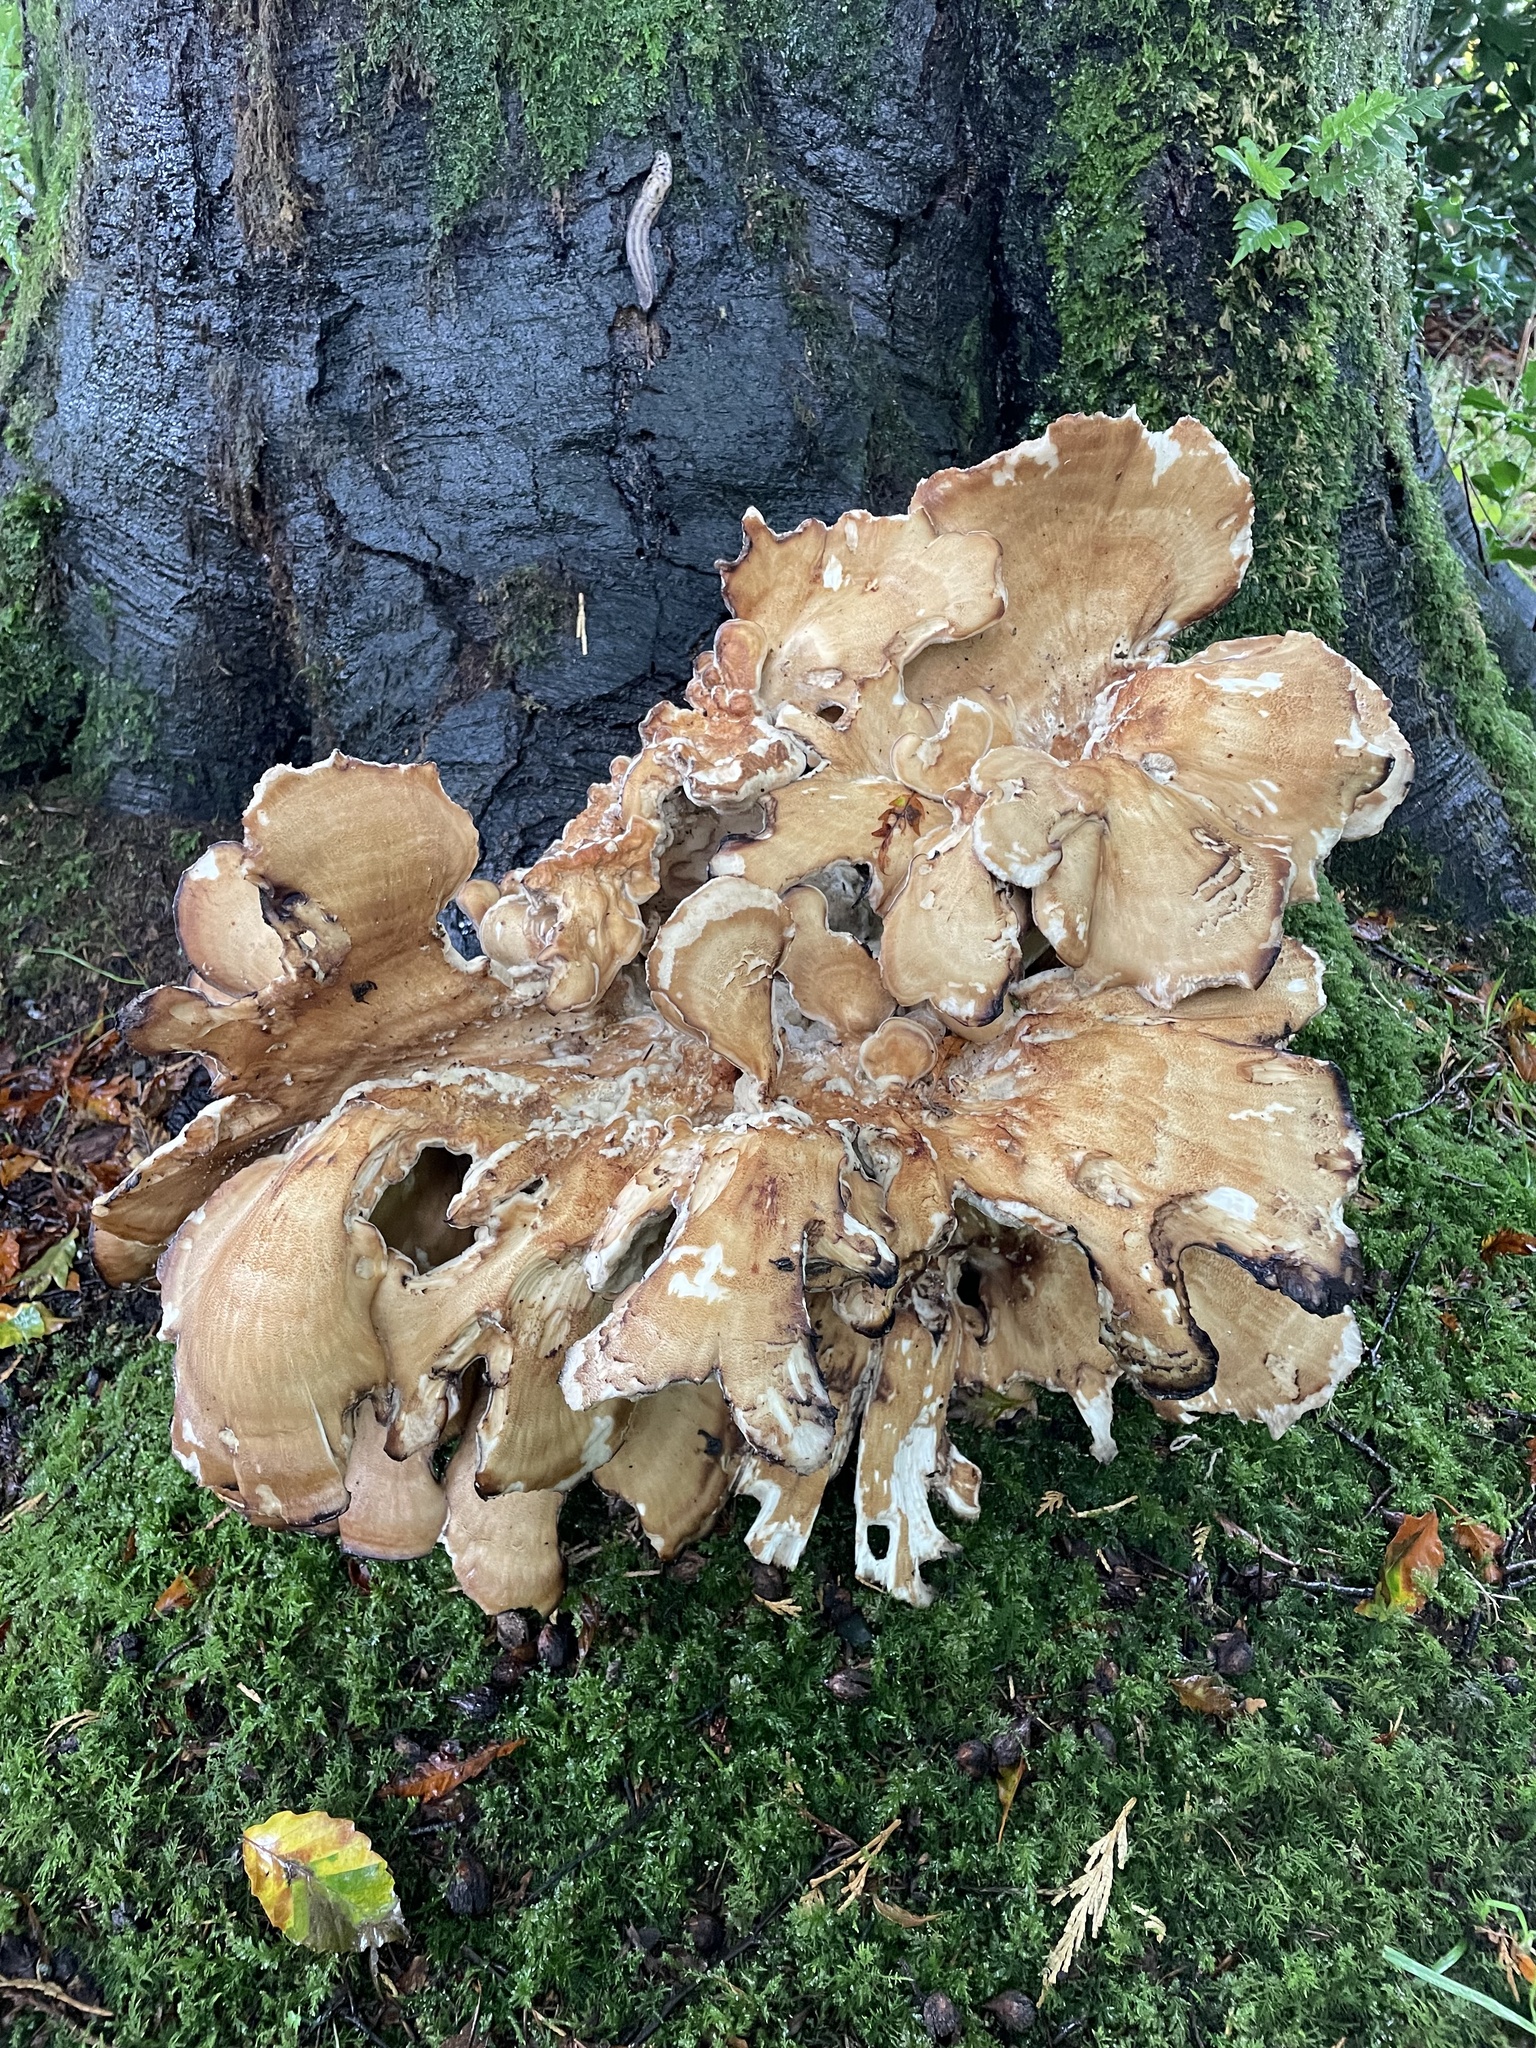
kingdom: Fungi
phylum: Basidiomycota
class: Agaricomycetes
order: Polyporales
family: Meripilaceae
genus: Meripilus
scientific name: Meripilus giganteus
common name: Giant polypore
